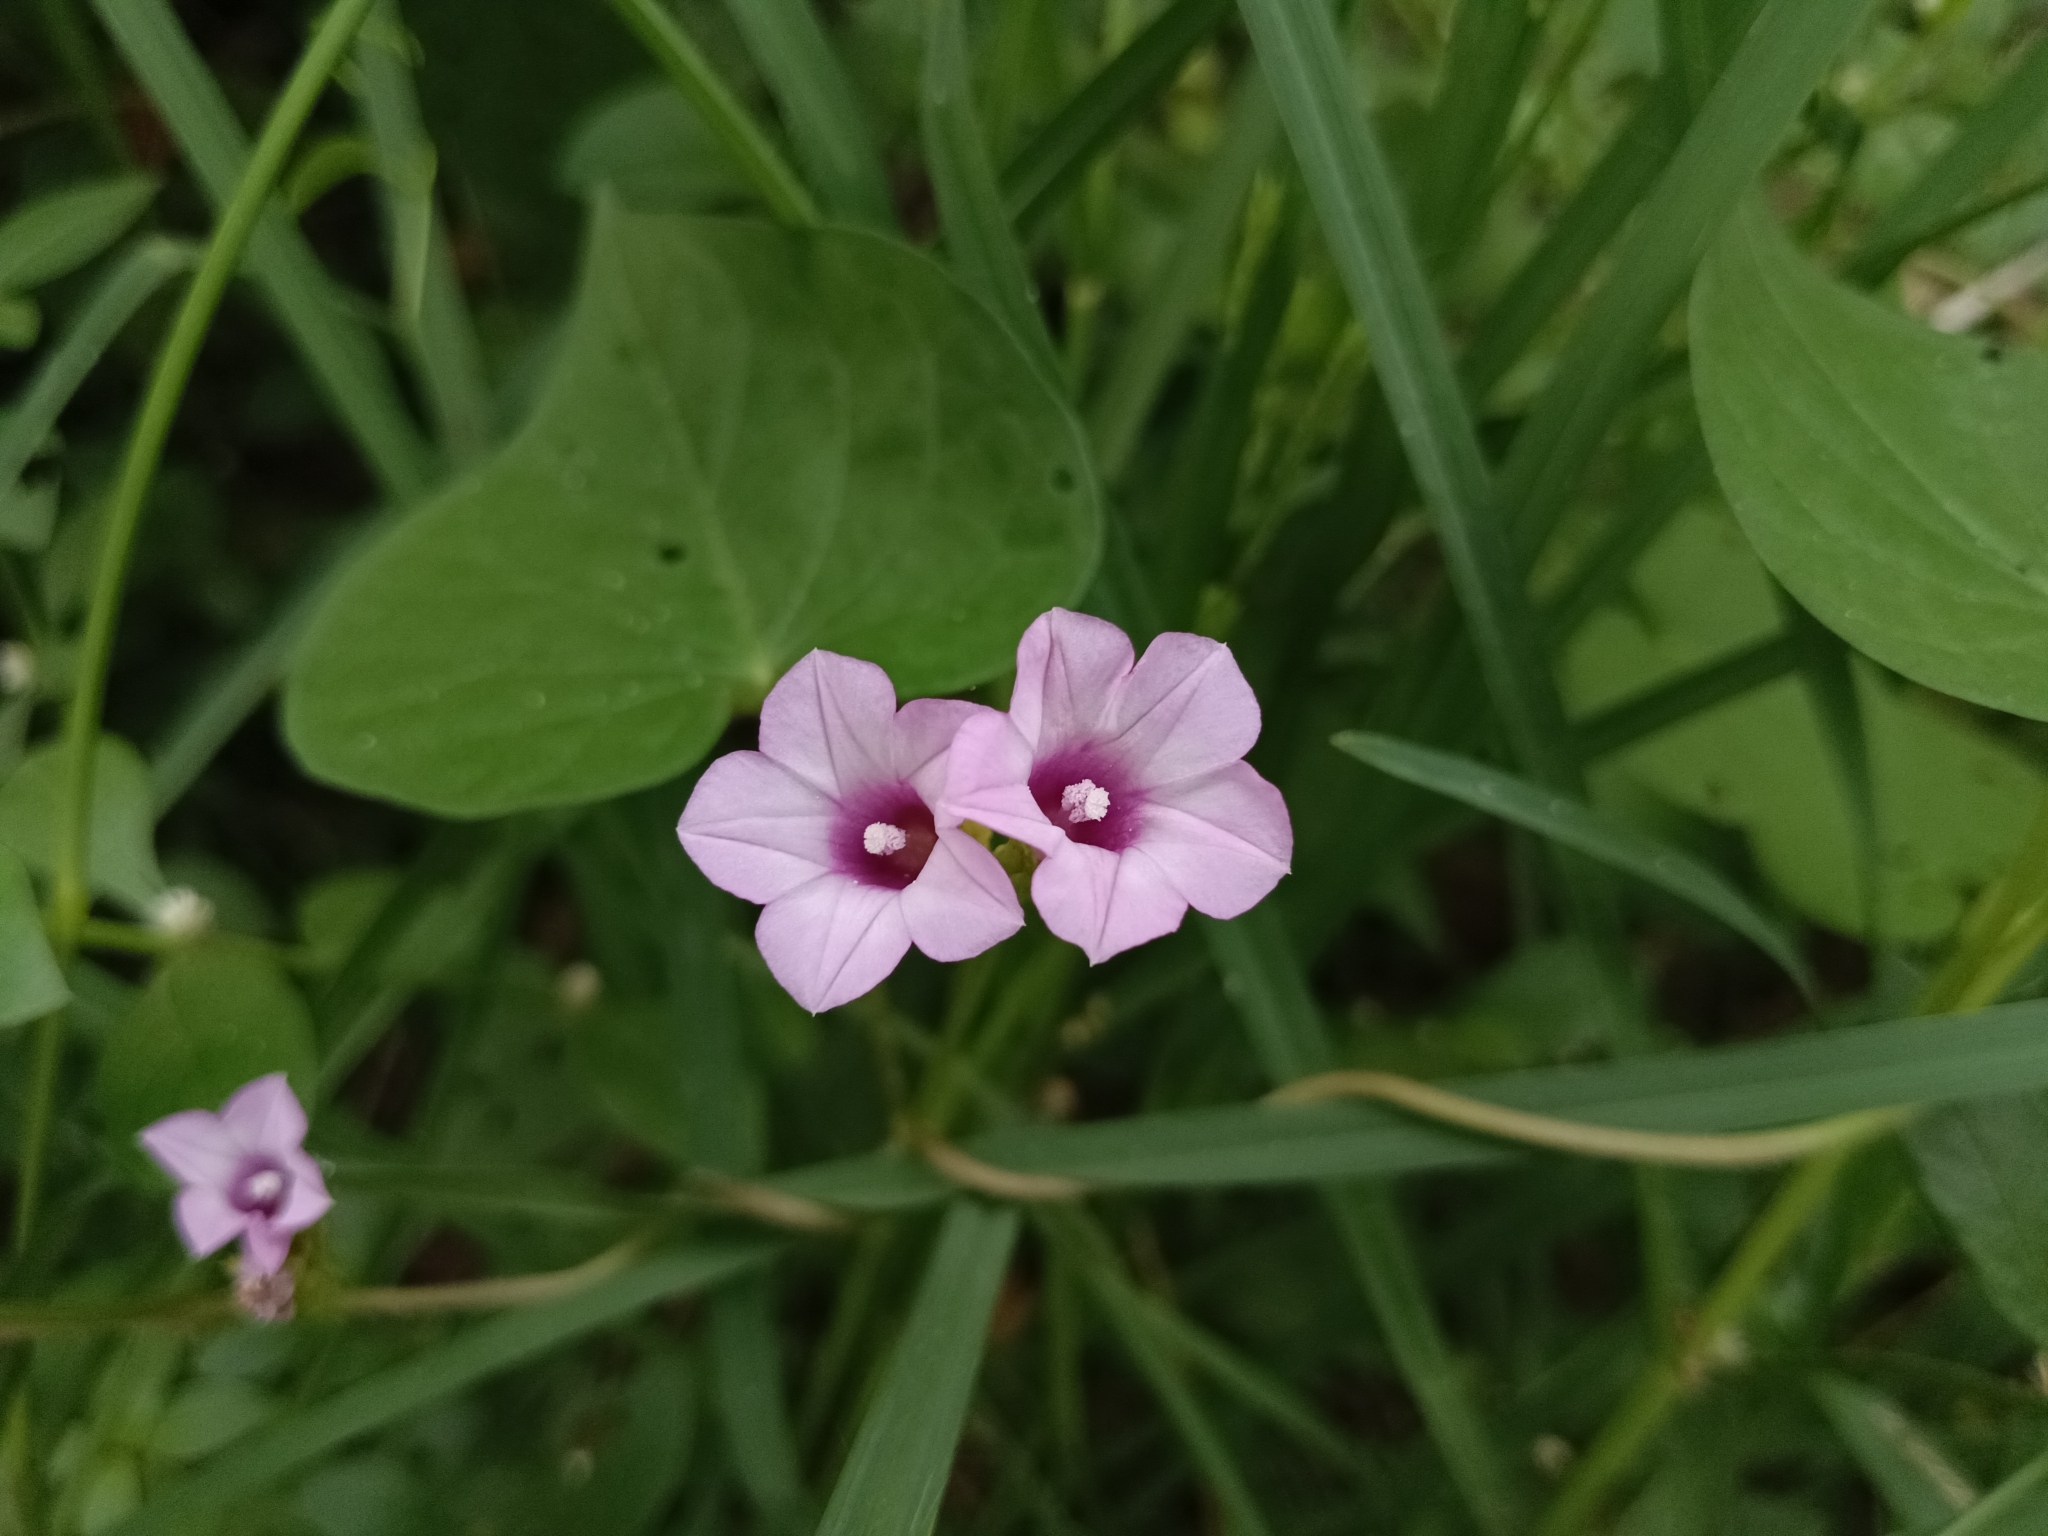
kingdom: Plantae
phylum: Tracheophyta
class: Magnoliopsida
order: Solanales
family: Convolvulaceae
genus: Ipomoea
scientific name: Ipomoea triloba
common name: Little-bell
